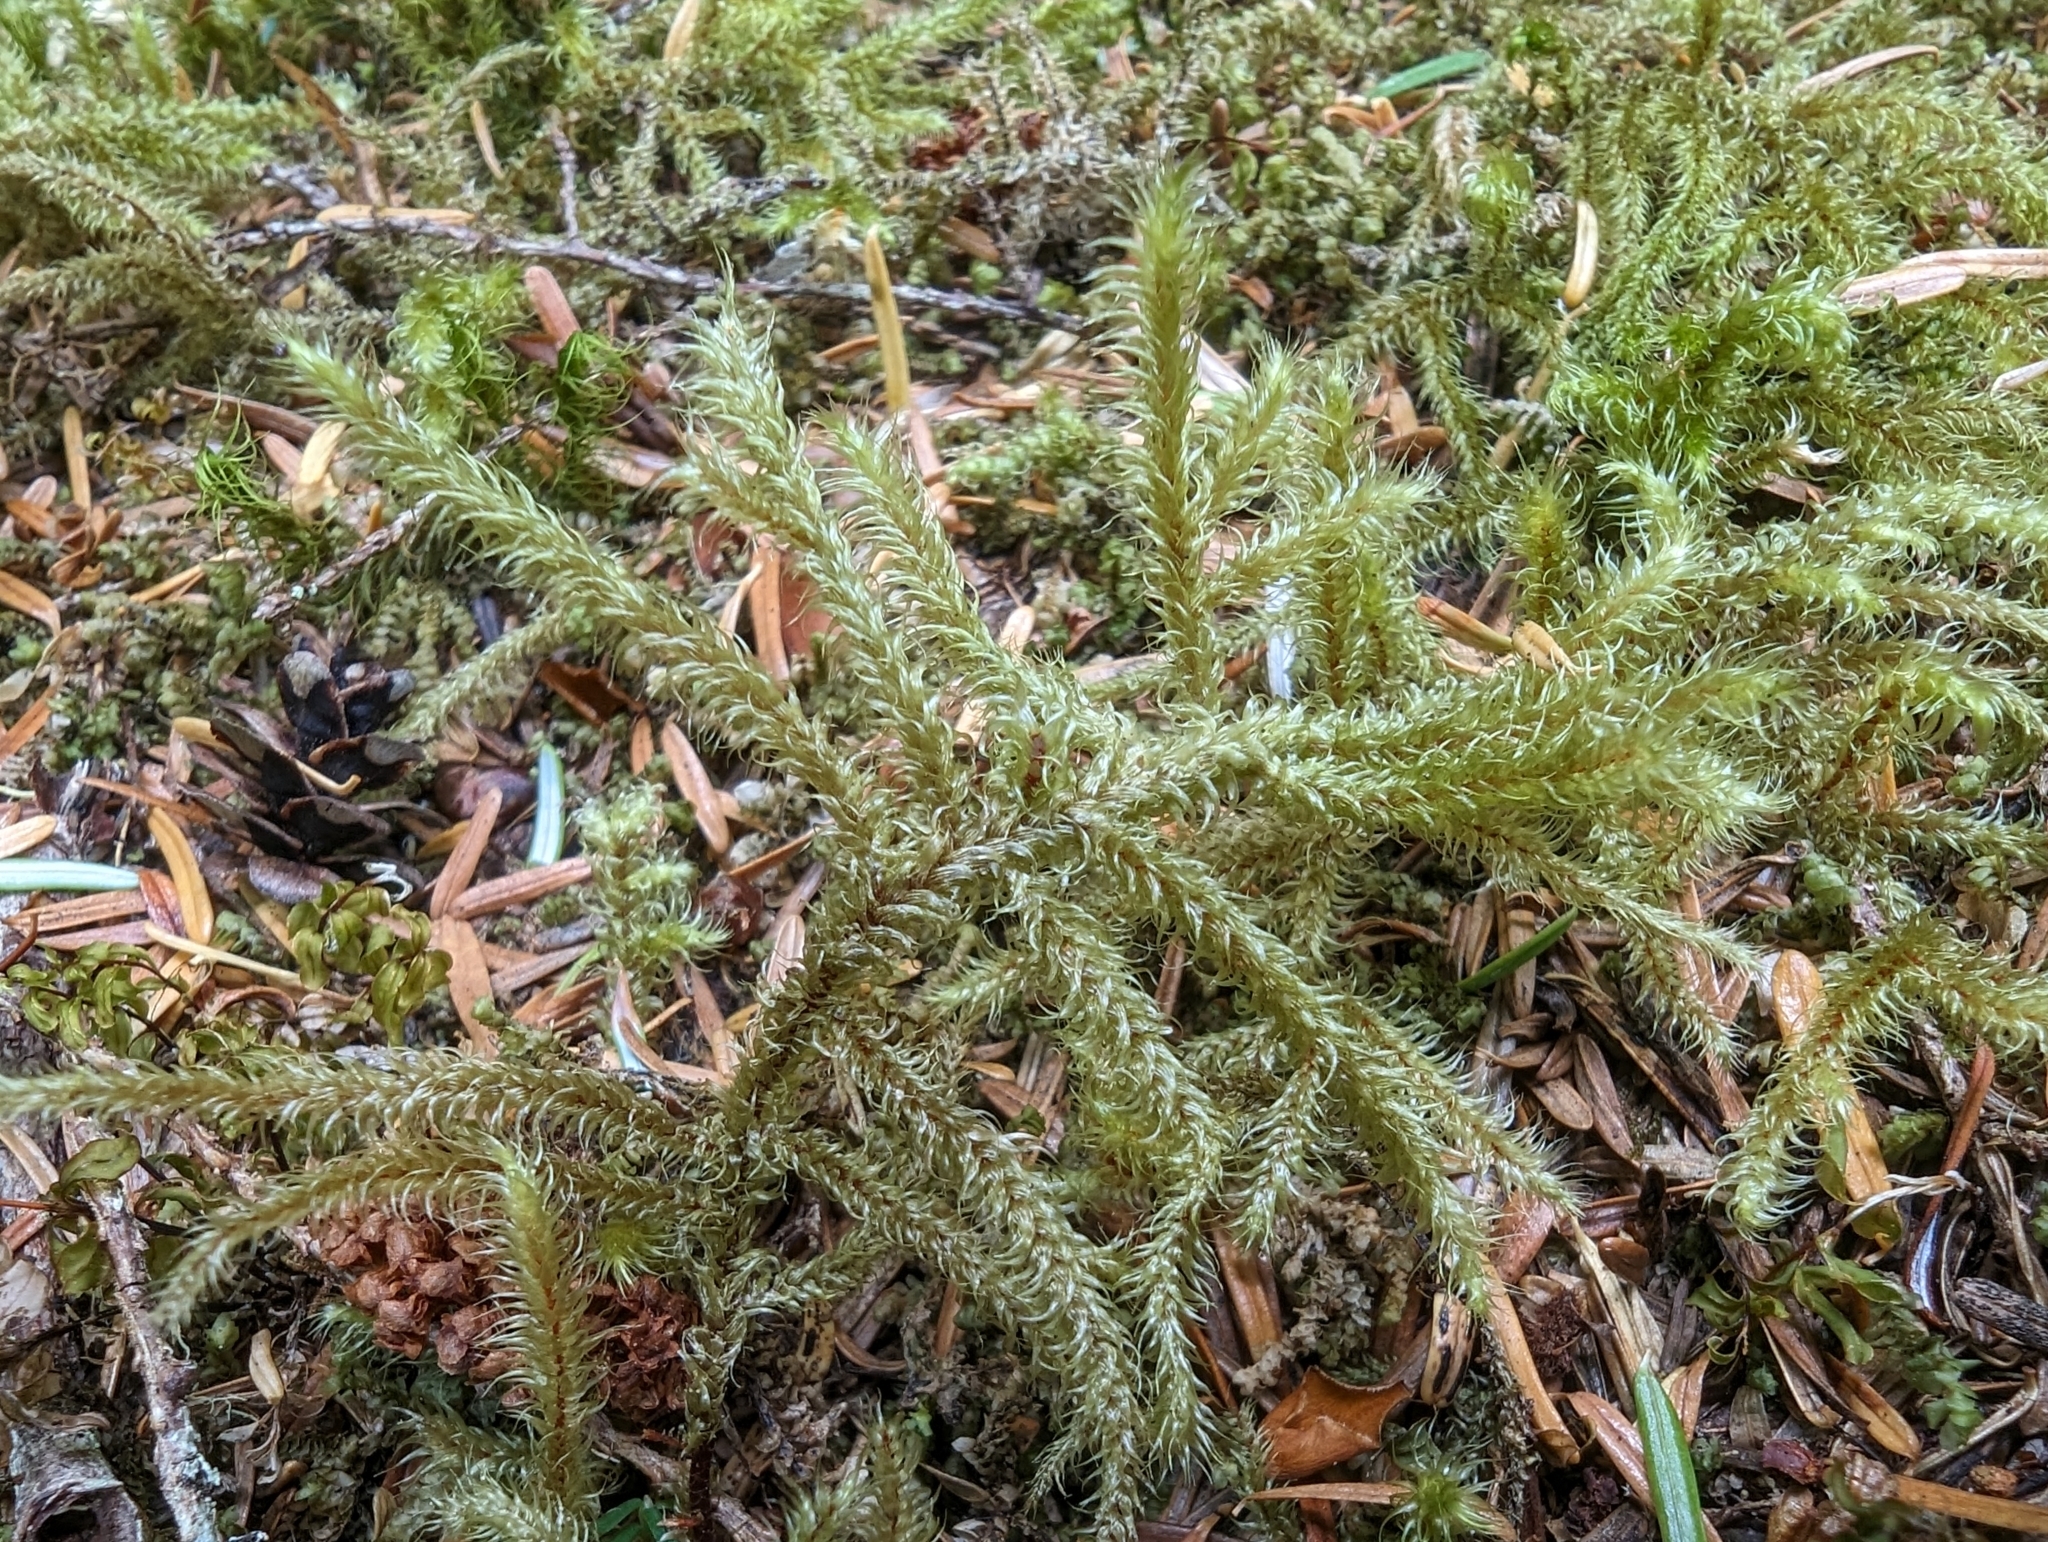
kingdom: Plantae
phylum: Bryophyta
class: Bryopsida
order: Hypnales
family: Hylocomiaceae
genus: Rhytidiadelphus
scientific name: Rhytidiadelphus loreus
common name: Lanky moss
